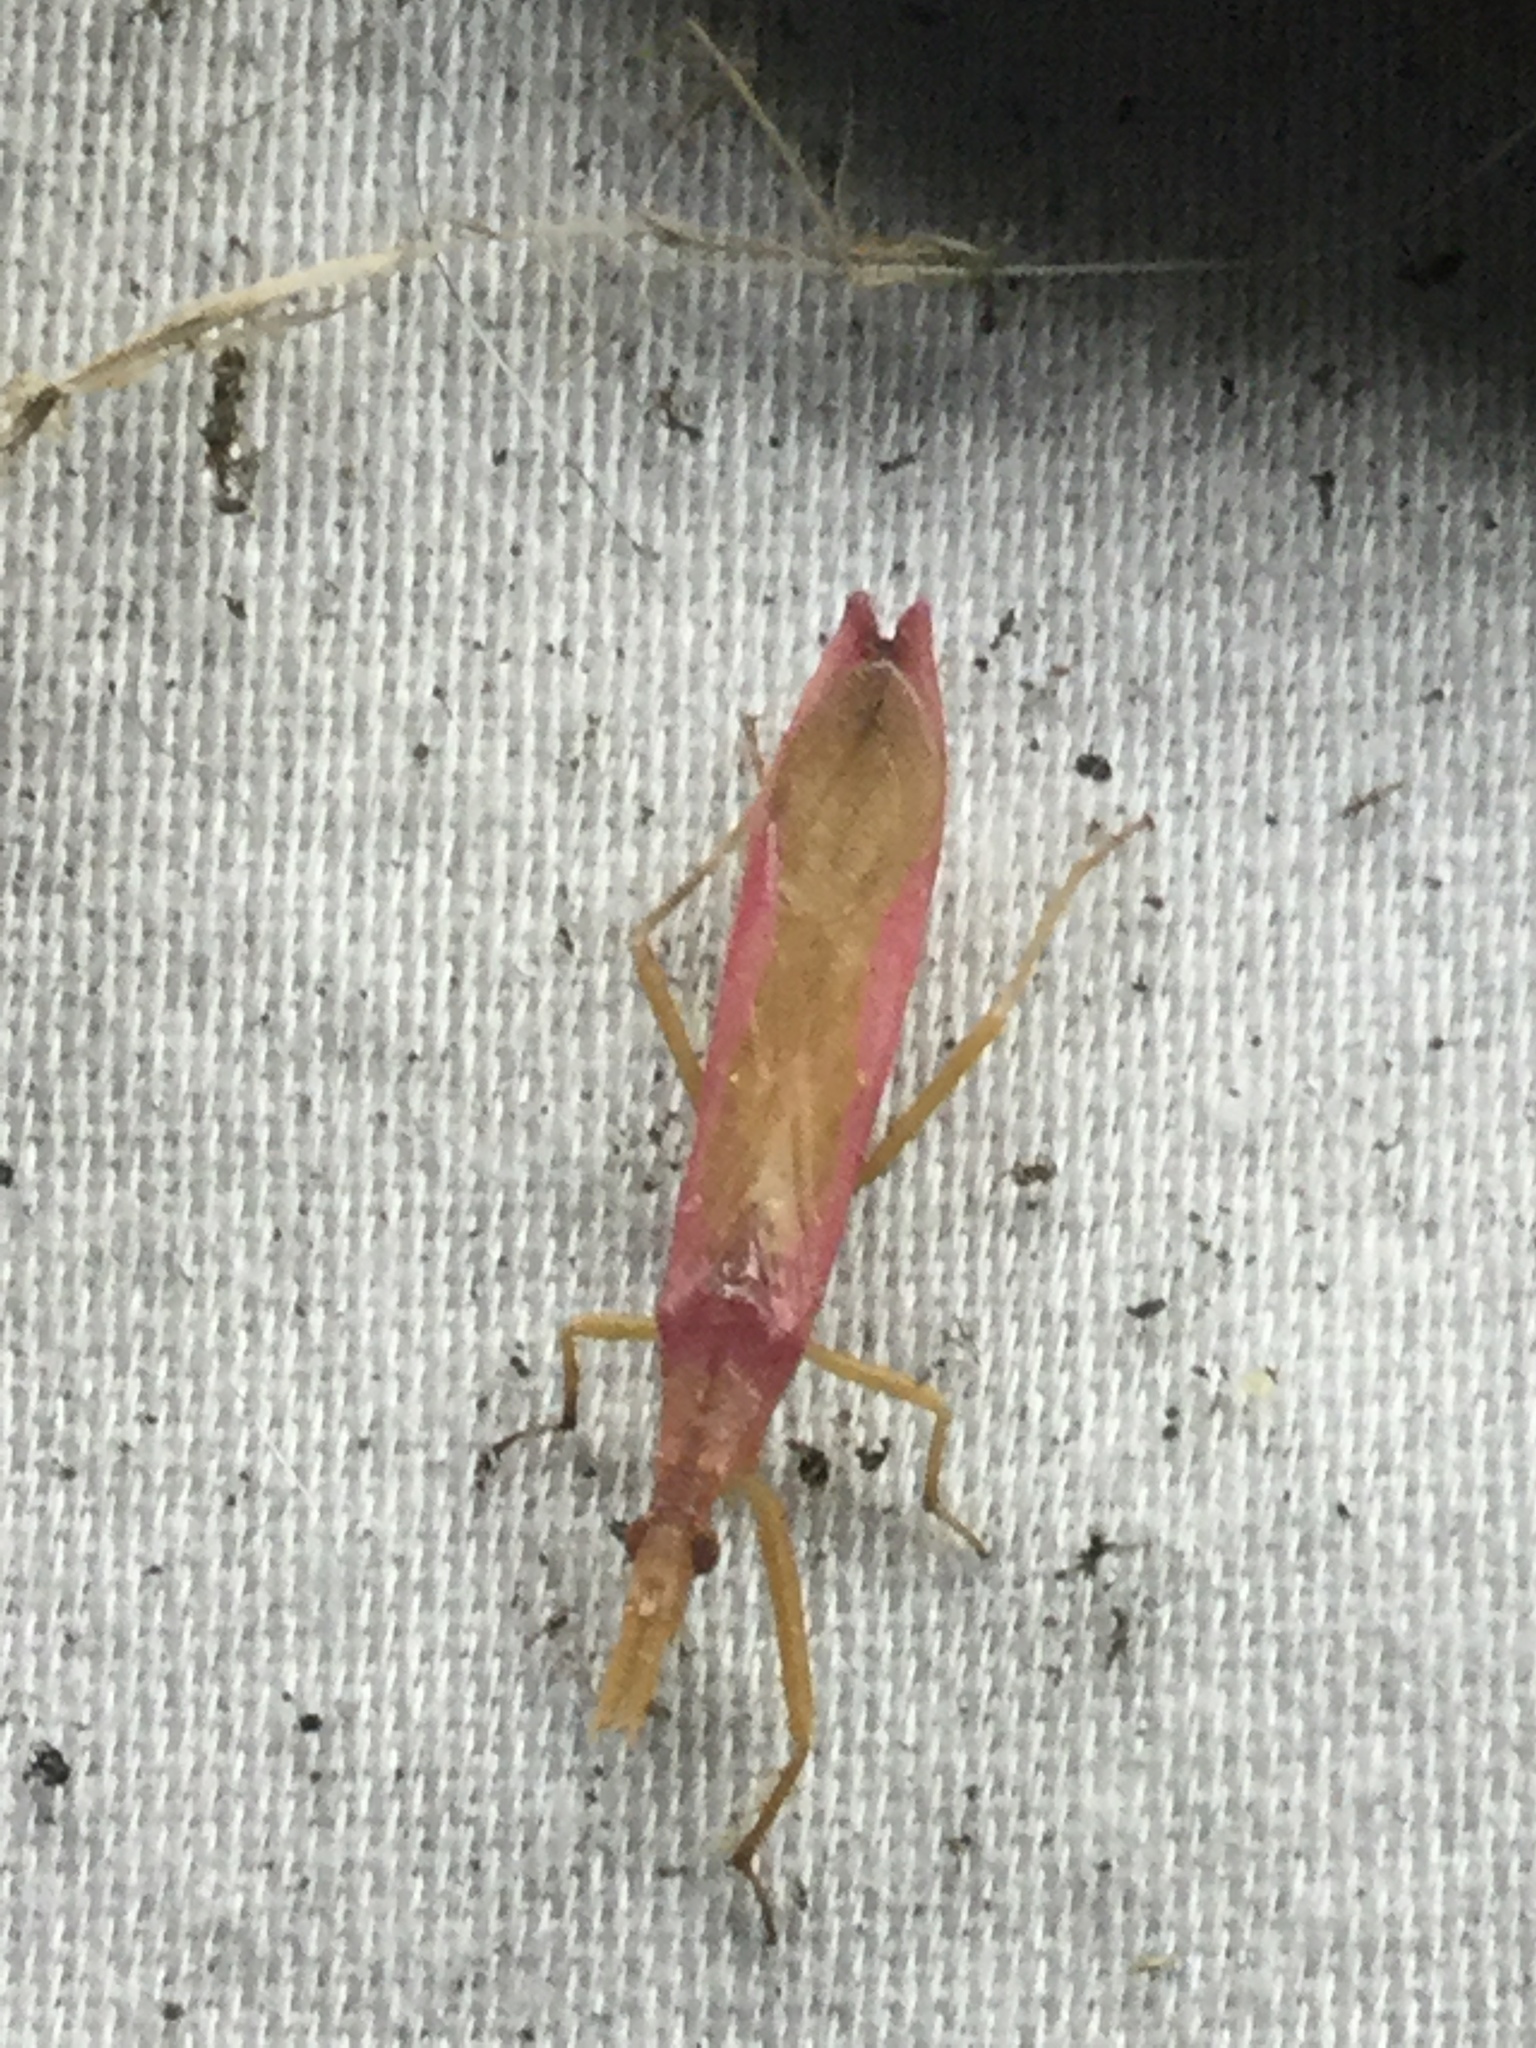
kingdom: Animalia
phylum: Arthropoda
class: Insecta
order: Hemiptera
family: Reduviidae
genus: Pnirontis
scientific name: Pnirontis languida
